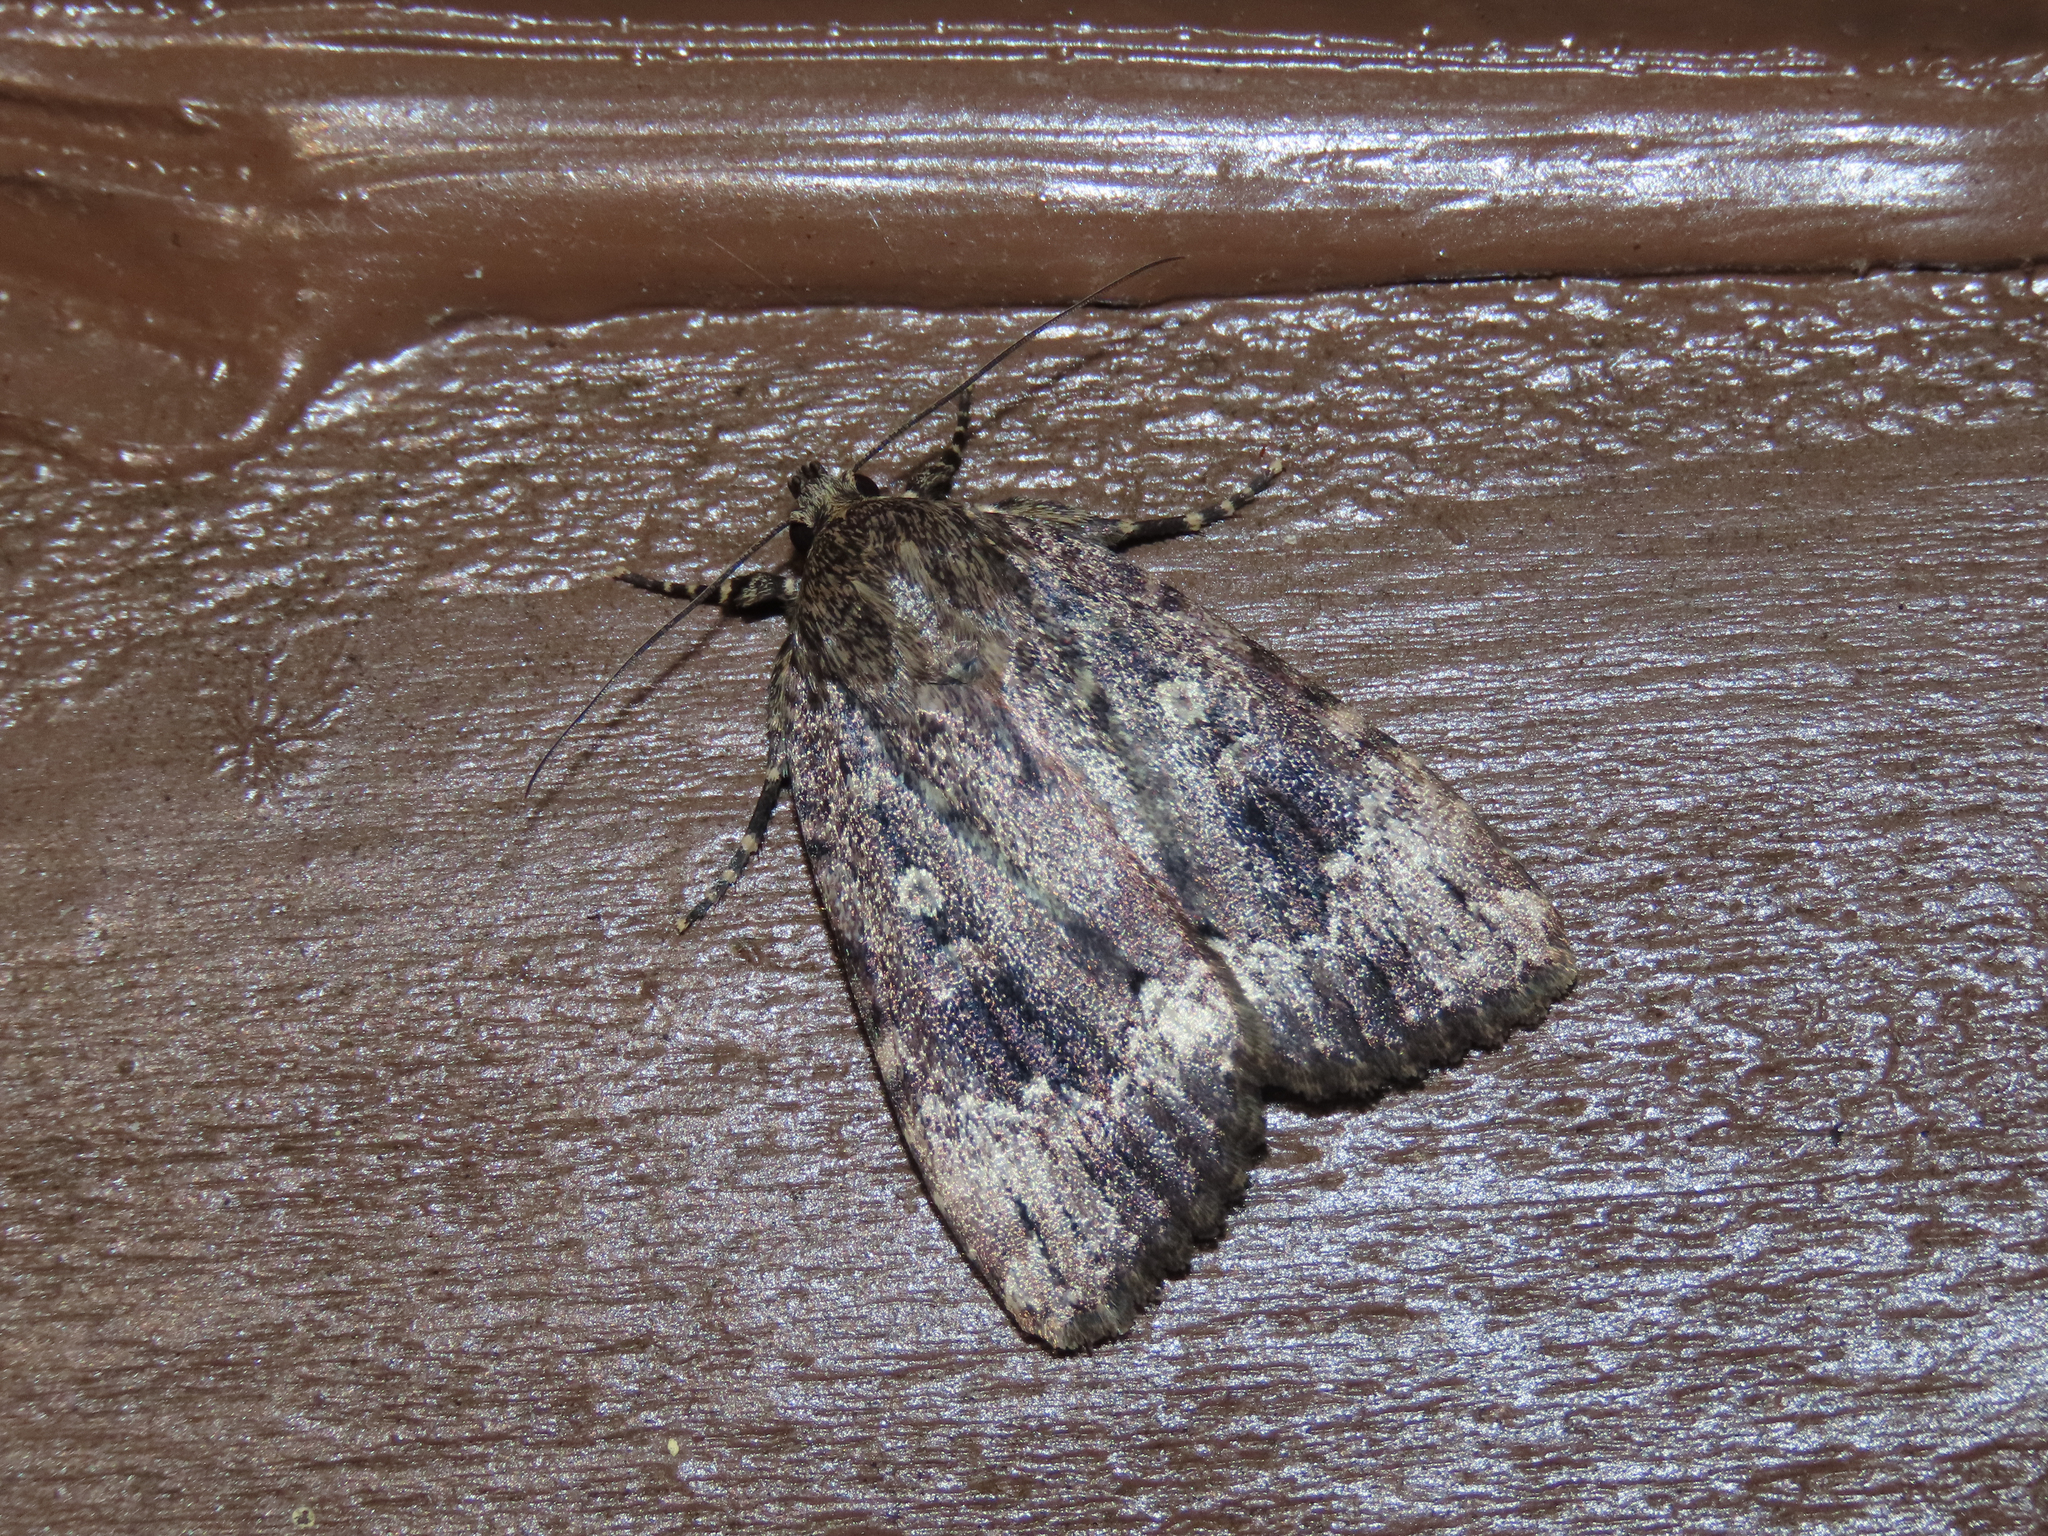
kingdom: Animalia
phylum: Arthropoda
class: Insecta
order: Lepidoptera
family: Noctuidae
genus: Amphipyra
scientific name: Amphipyra pyramidoides
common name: American copper underwing
